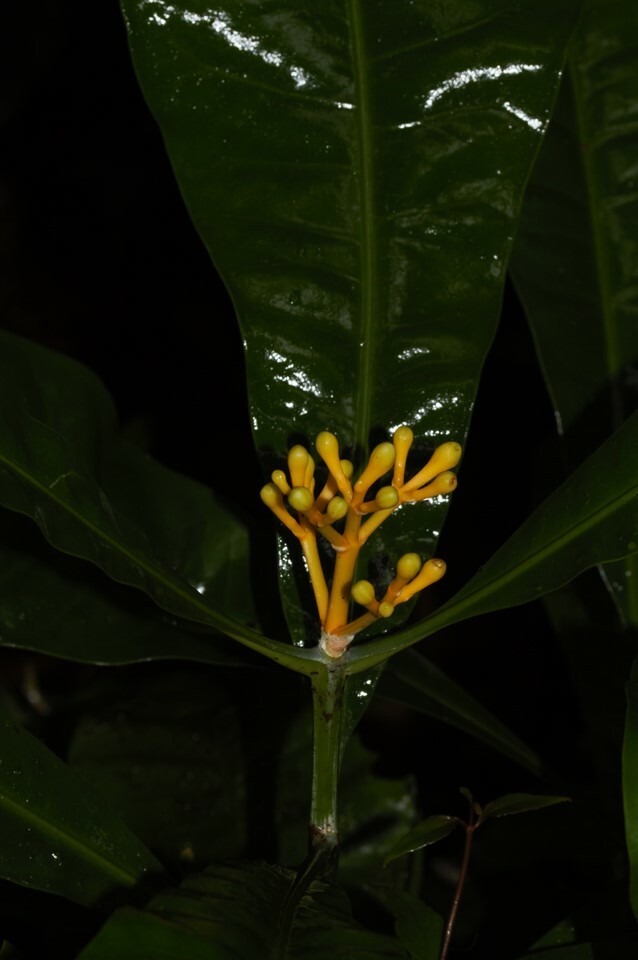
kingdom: Plantae
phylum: Tracheophyta
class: Magnoliopsida
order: Gentianales
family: Gentianaceae
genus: Potalia
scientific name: Potalia amara
